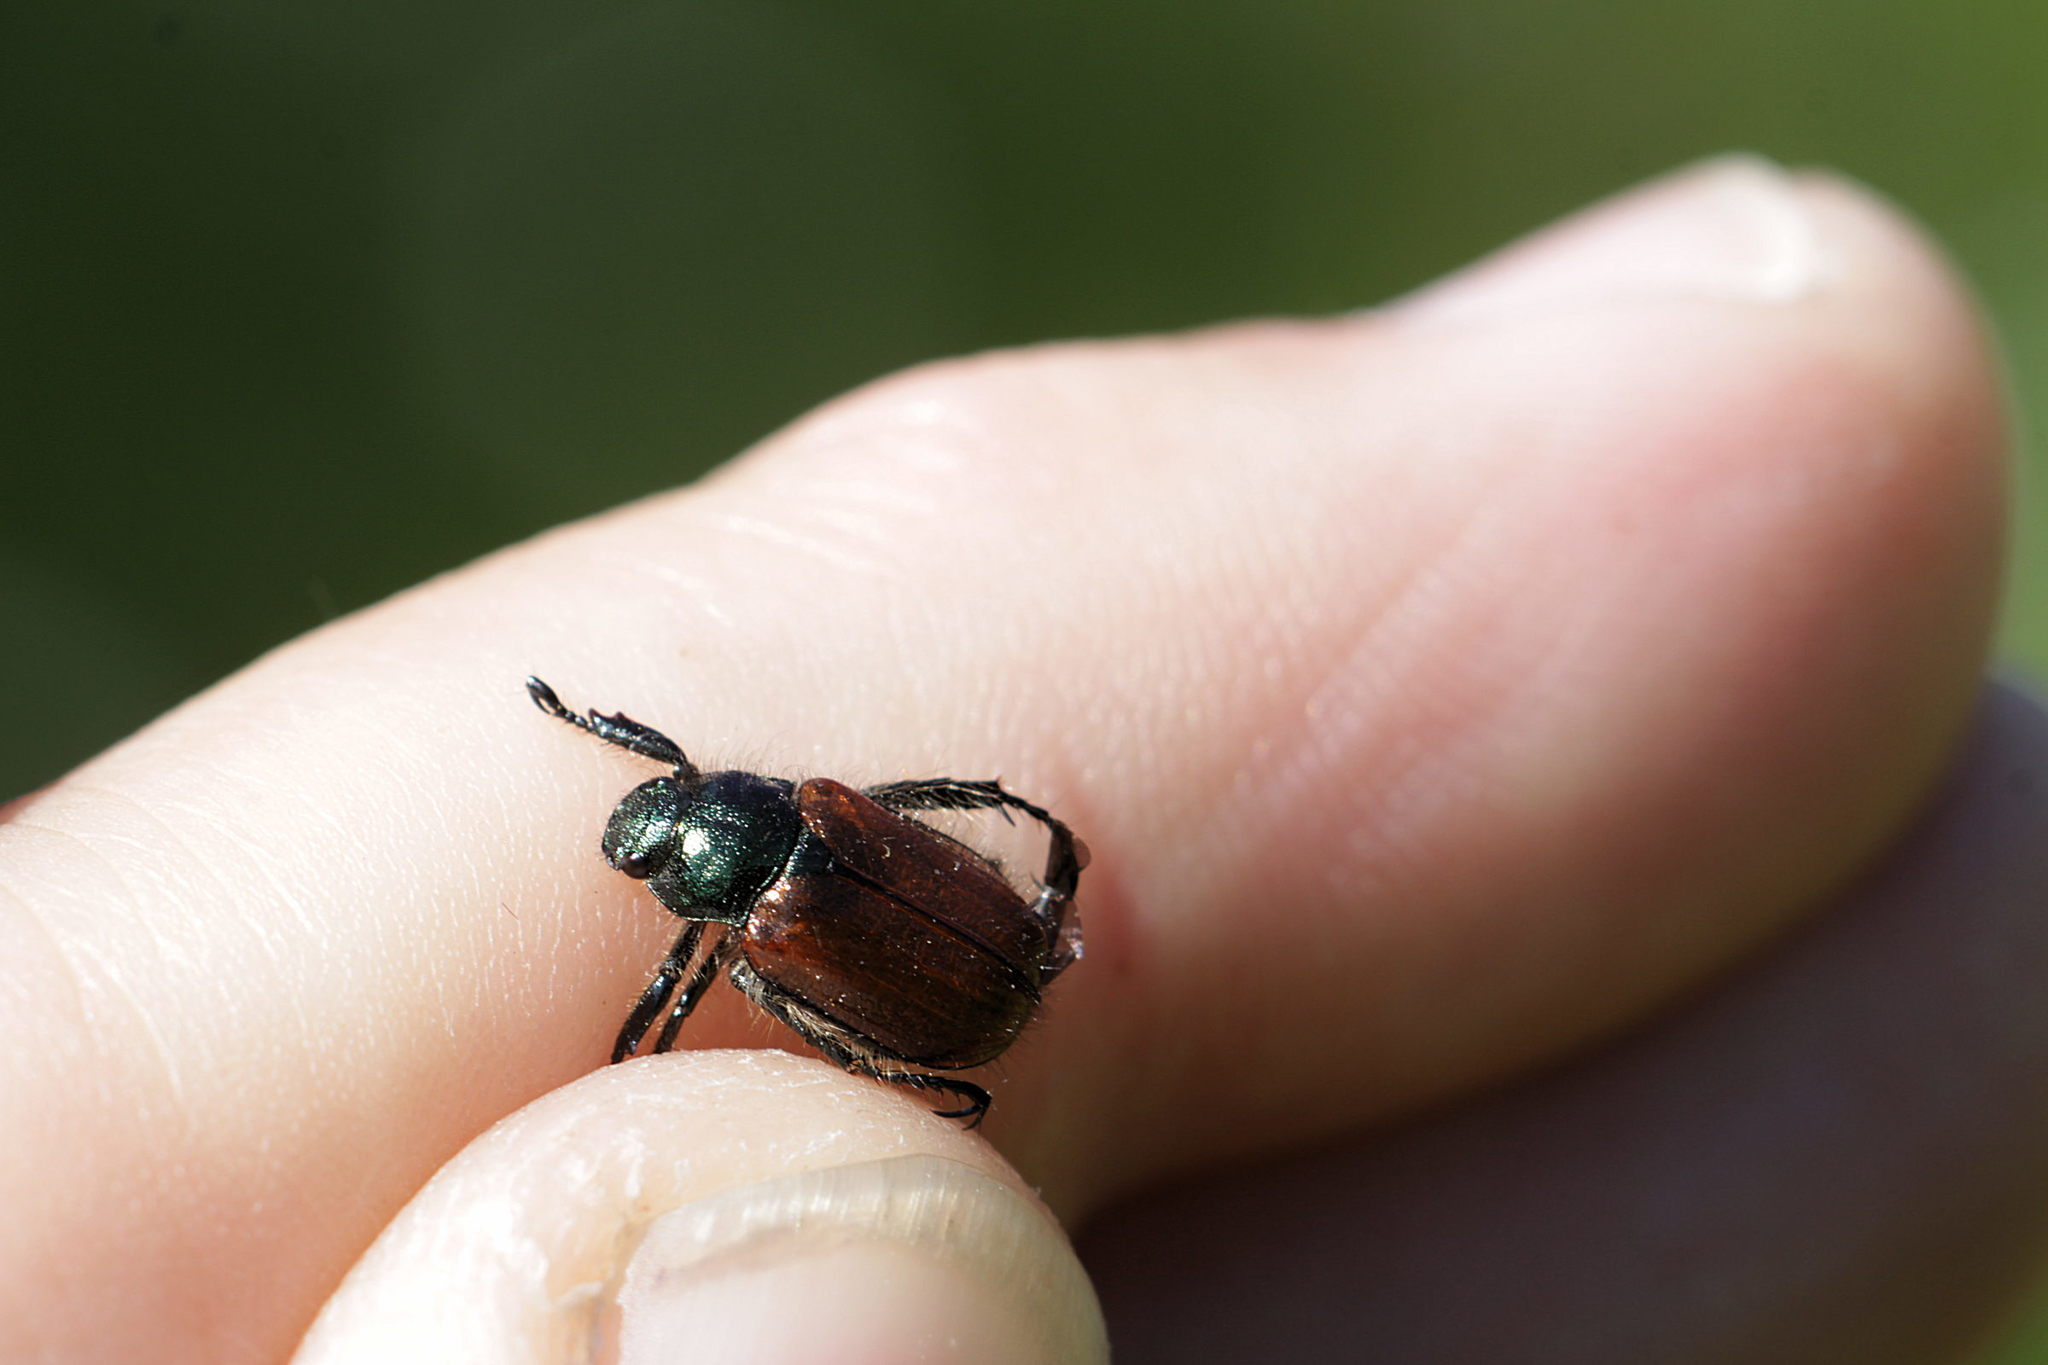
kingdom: Animalia
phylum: Arthropoda
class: Insecta
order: Coleoptera
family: Scarabaeidae
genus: Phyllopertha
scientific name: Phyllopertha horticola
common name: Garden chafer
